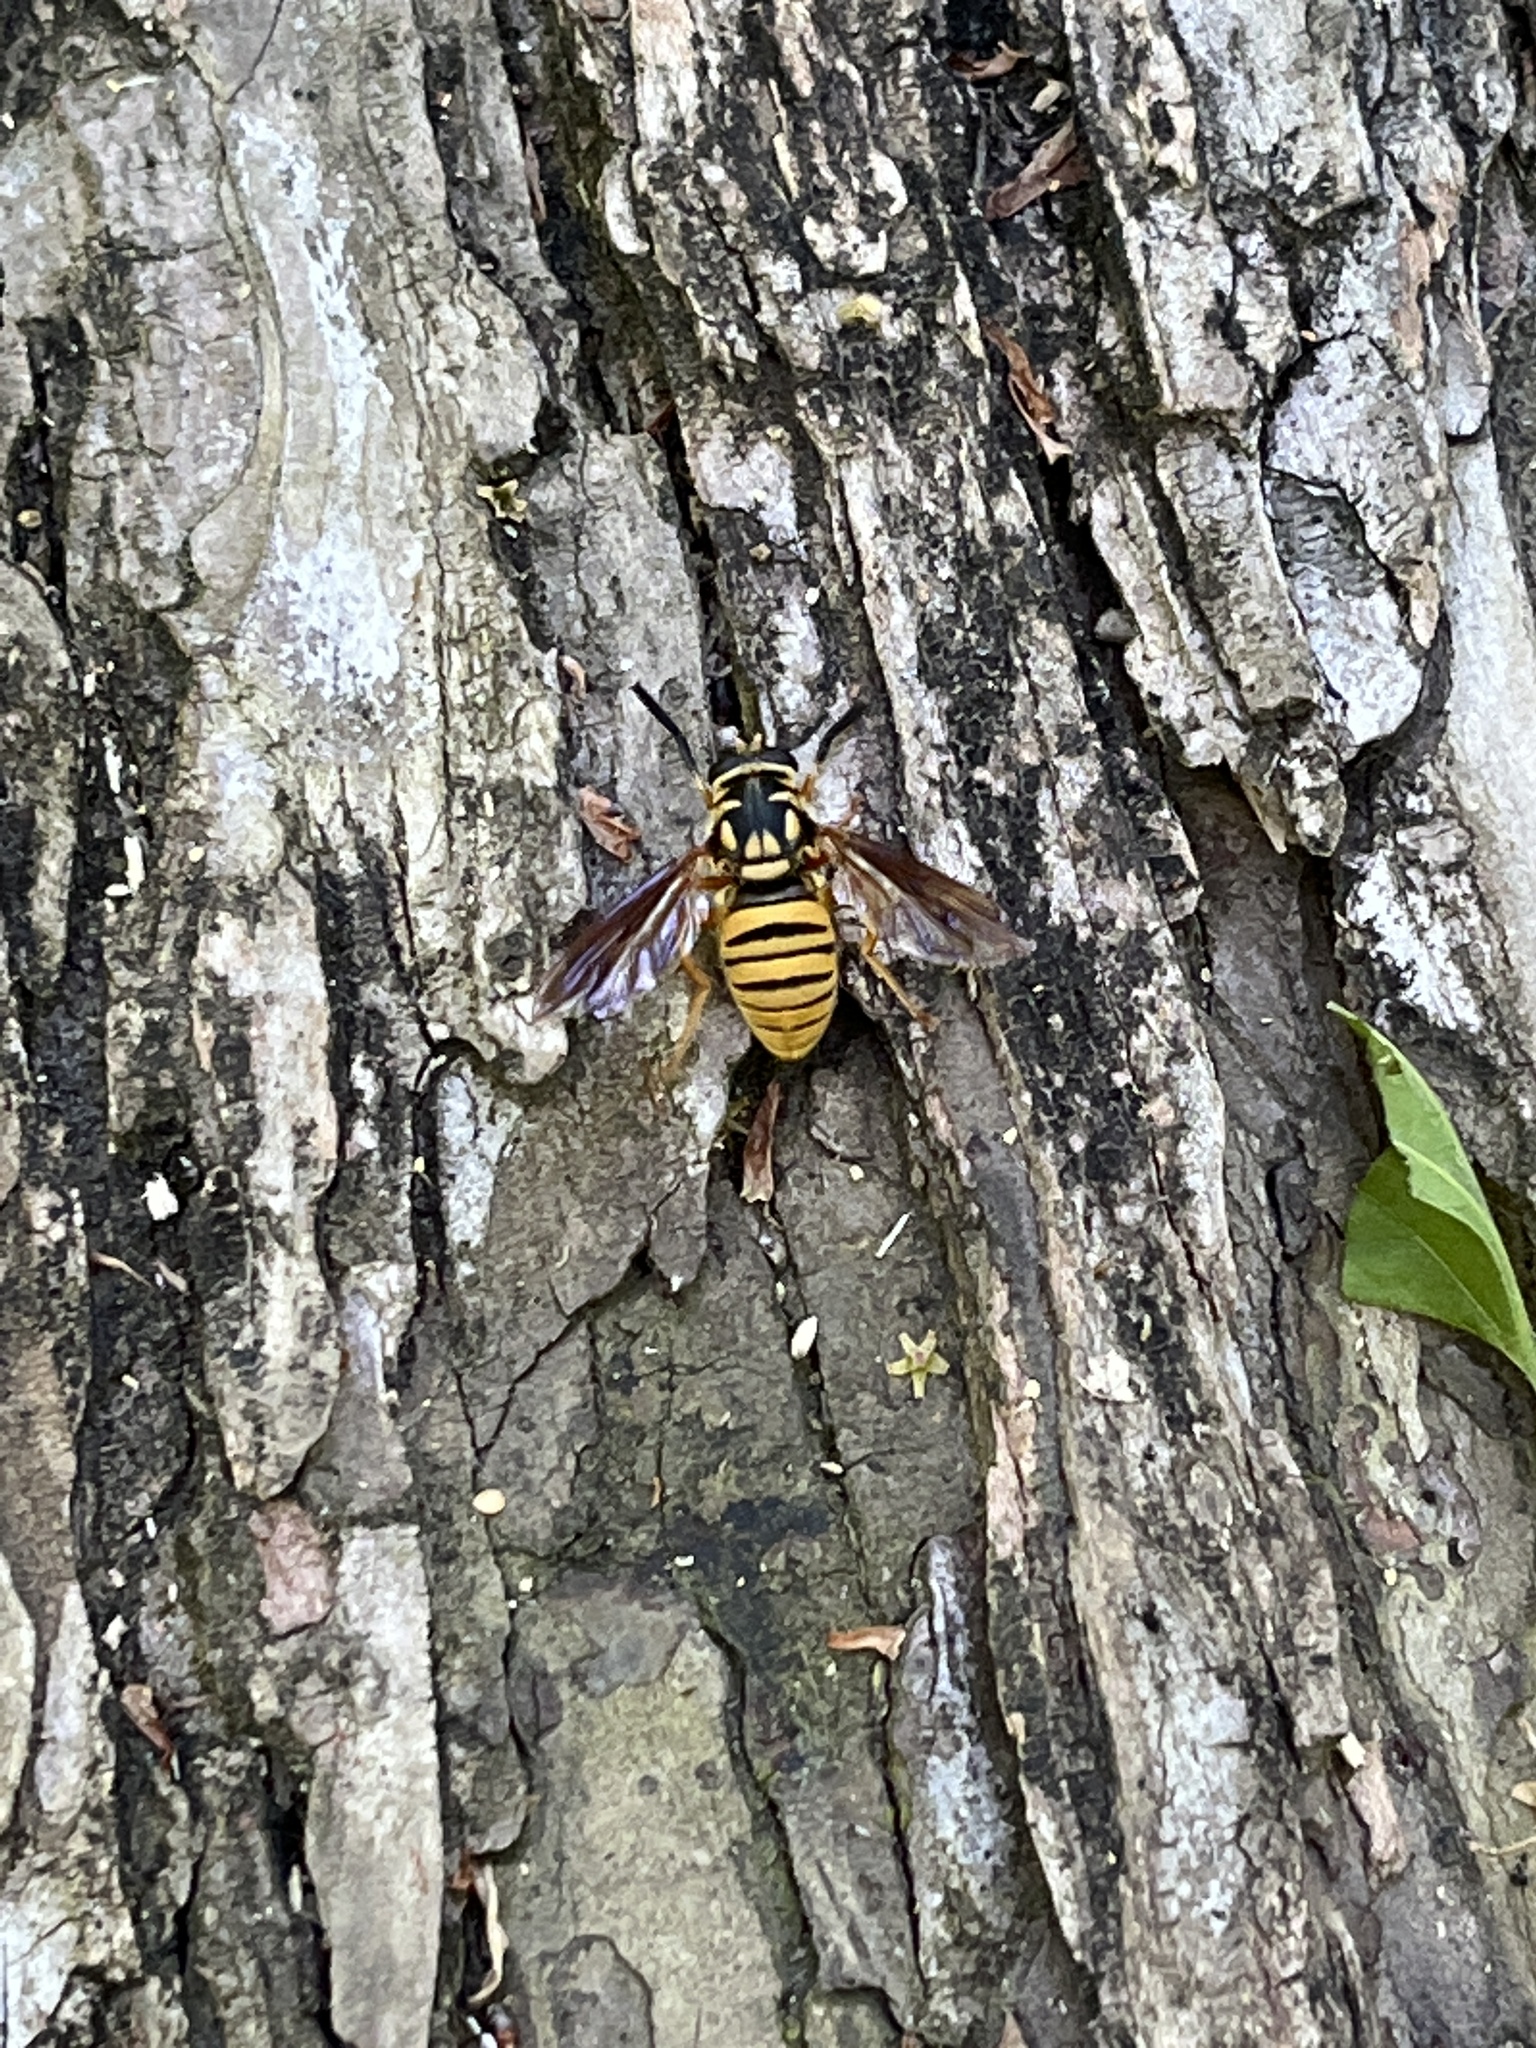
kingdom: Animalia
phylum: Arthropoda
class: Insecta
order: Diptera
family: Syrphidae
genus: Temnostoma
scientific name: Temnostoma daochum
